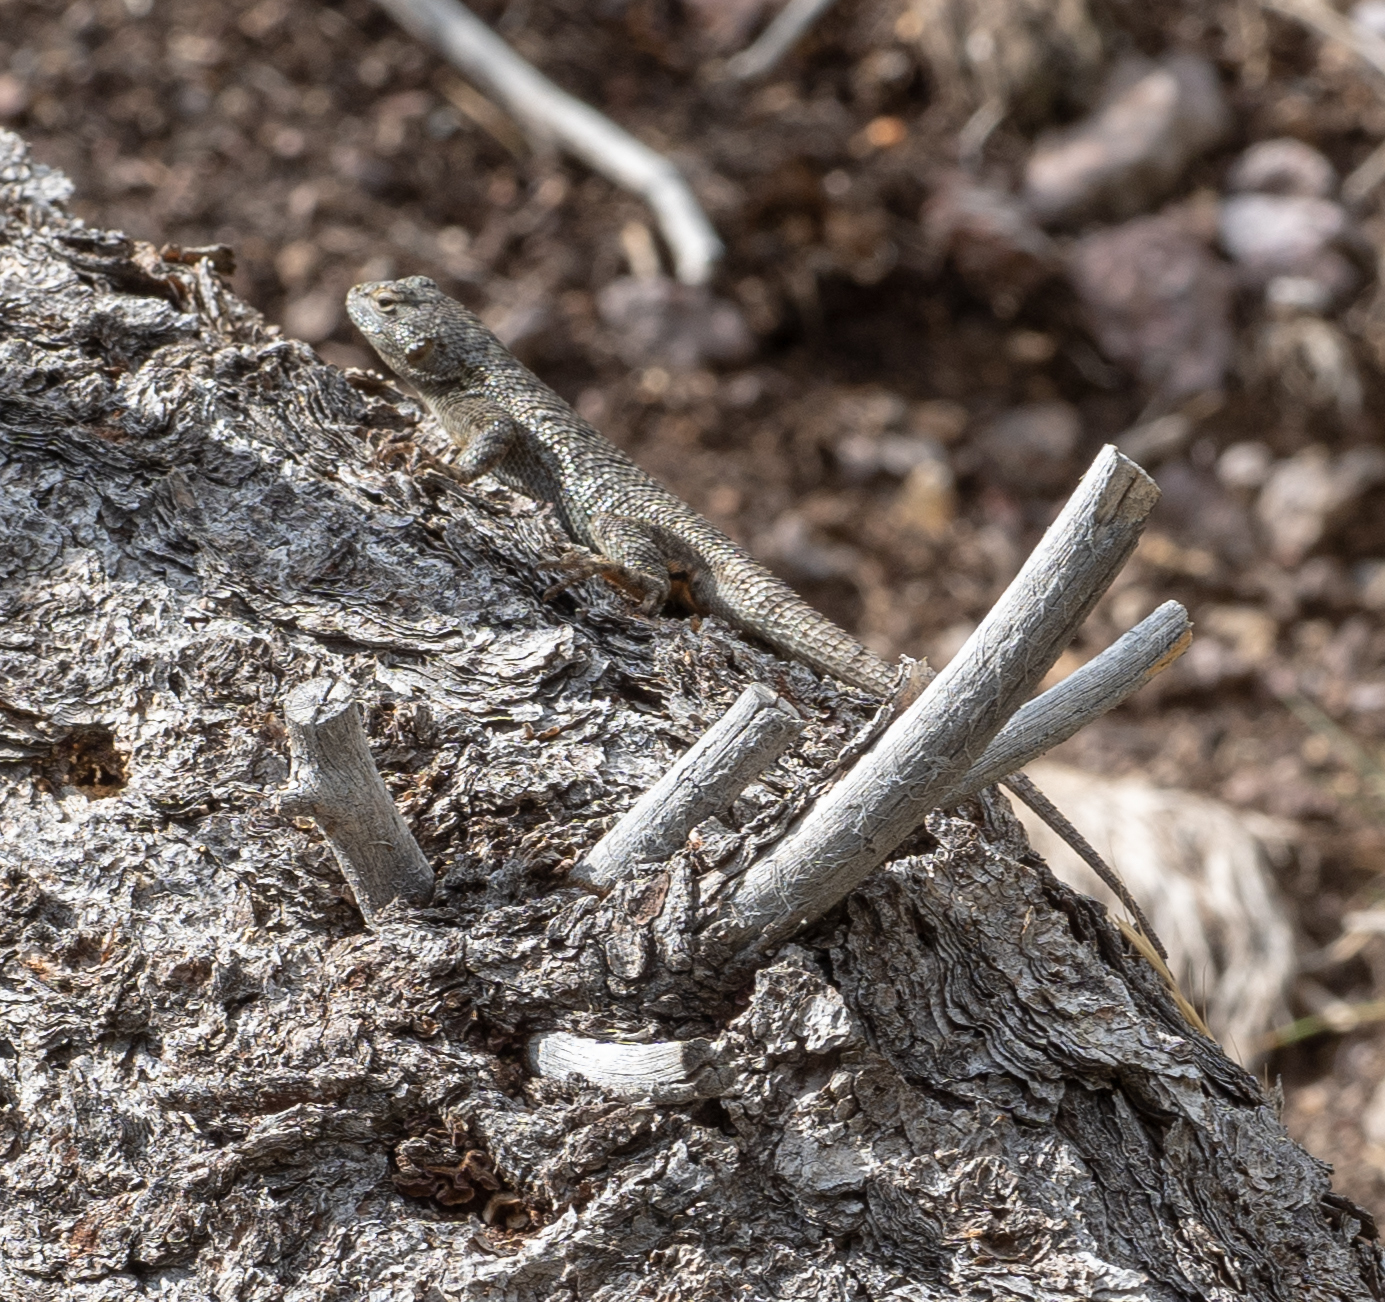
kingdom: Animalia
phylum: Chordata
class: Squamata
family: Phrynosomatidae
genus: Sceloporus
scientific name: Sceloporus occidentalis
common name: Western fence lizard
